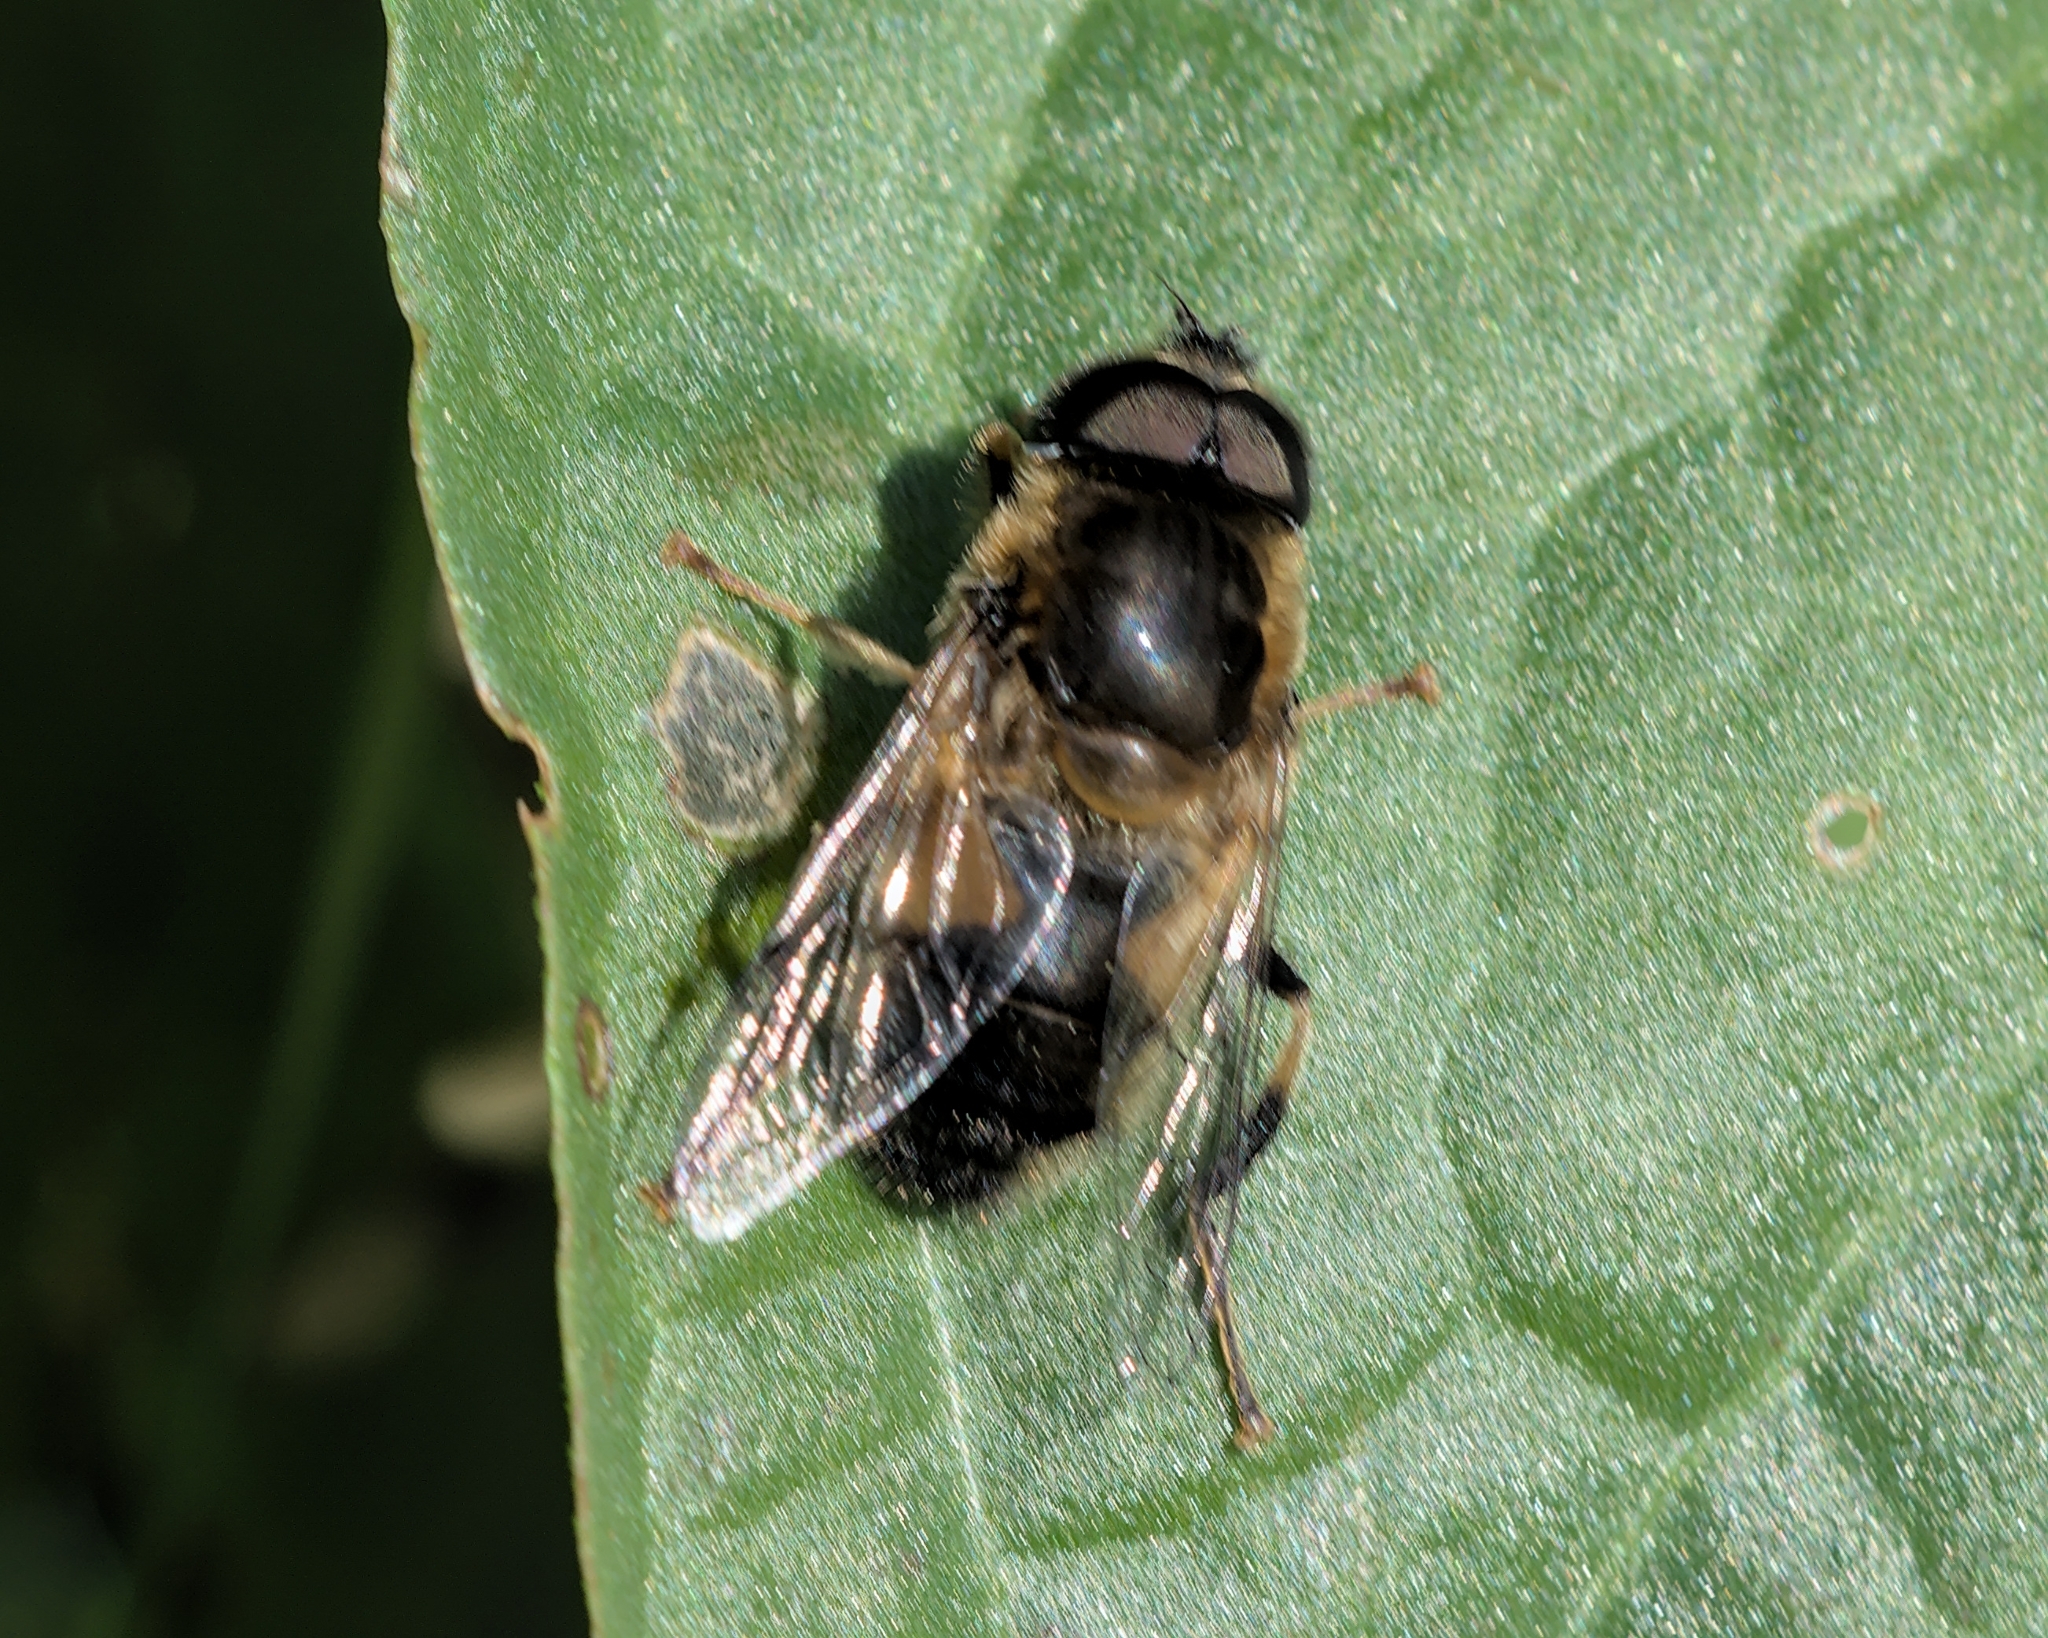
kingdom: Animalia
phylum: Arthropoda
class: Insecta
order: Diptera
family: Syrphidae
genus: Eristalis
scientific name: Eristalis pertinax
